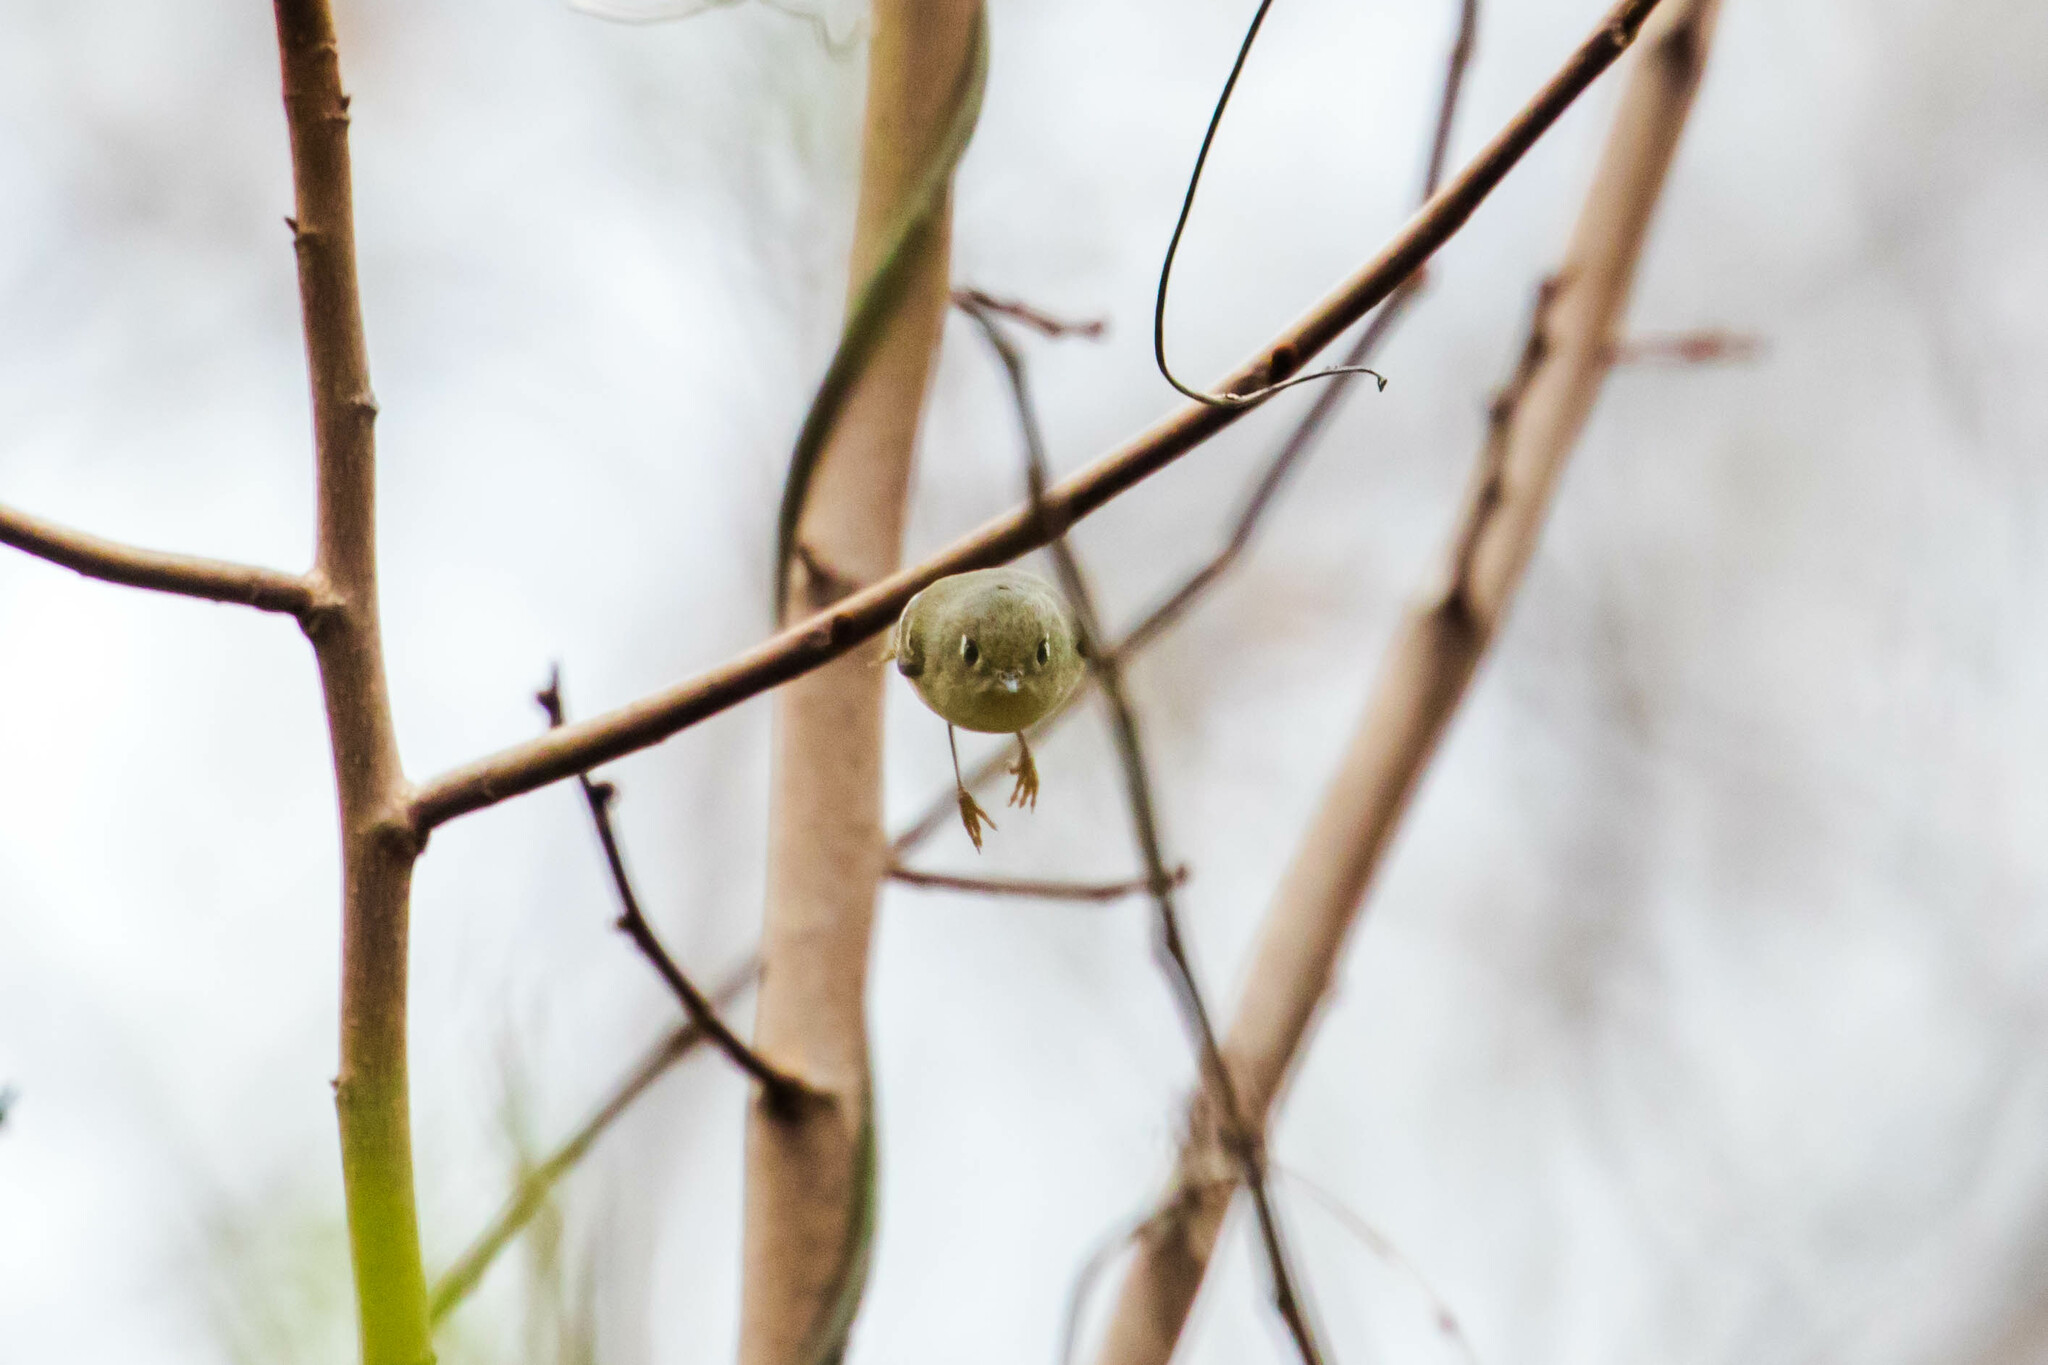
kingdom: Animalia
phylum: Chordata
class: Aves
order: Passeriformes
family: Regulidae
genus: Regulus
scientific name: Regulus calendula
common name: Ruby-crowned kinglet
